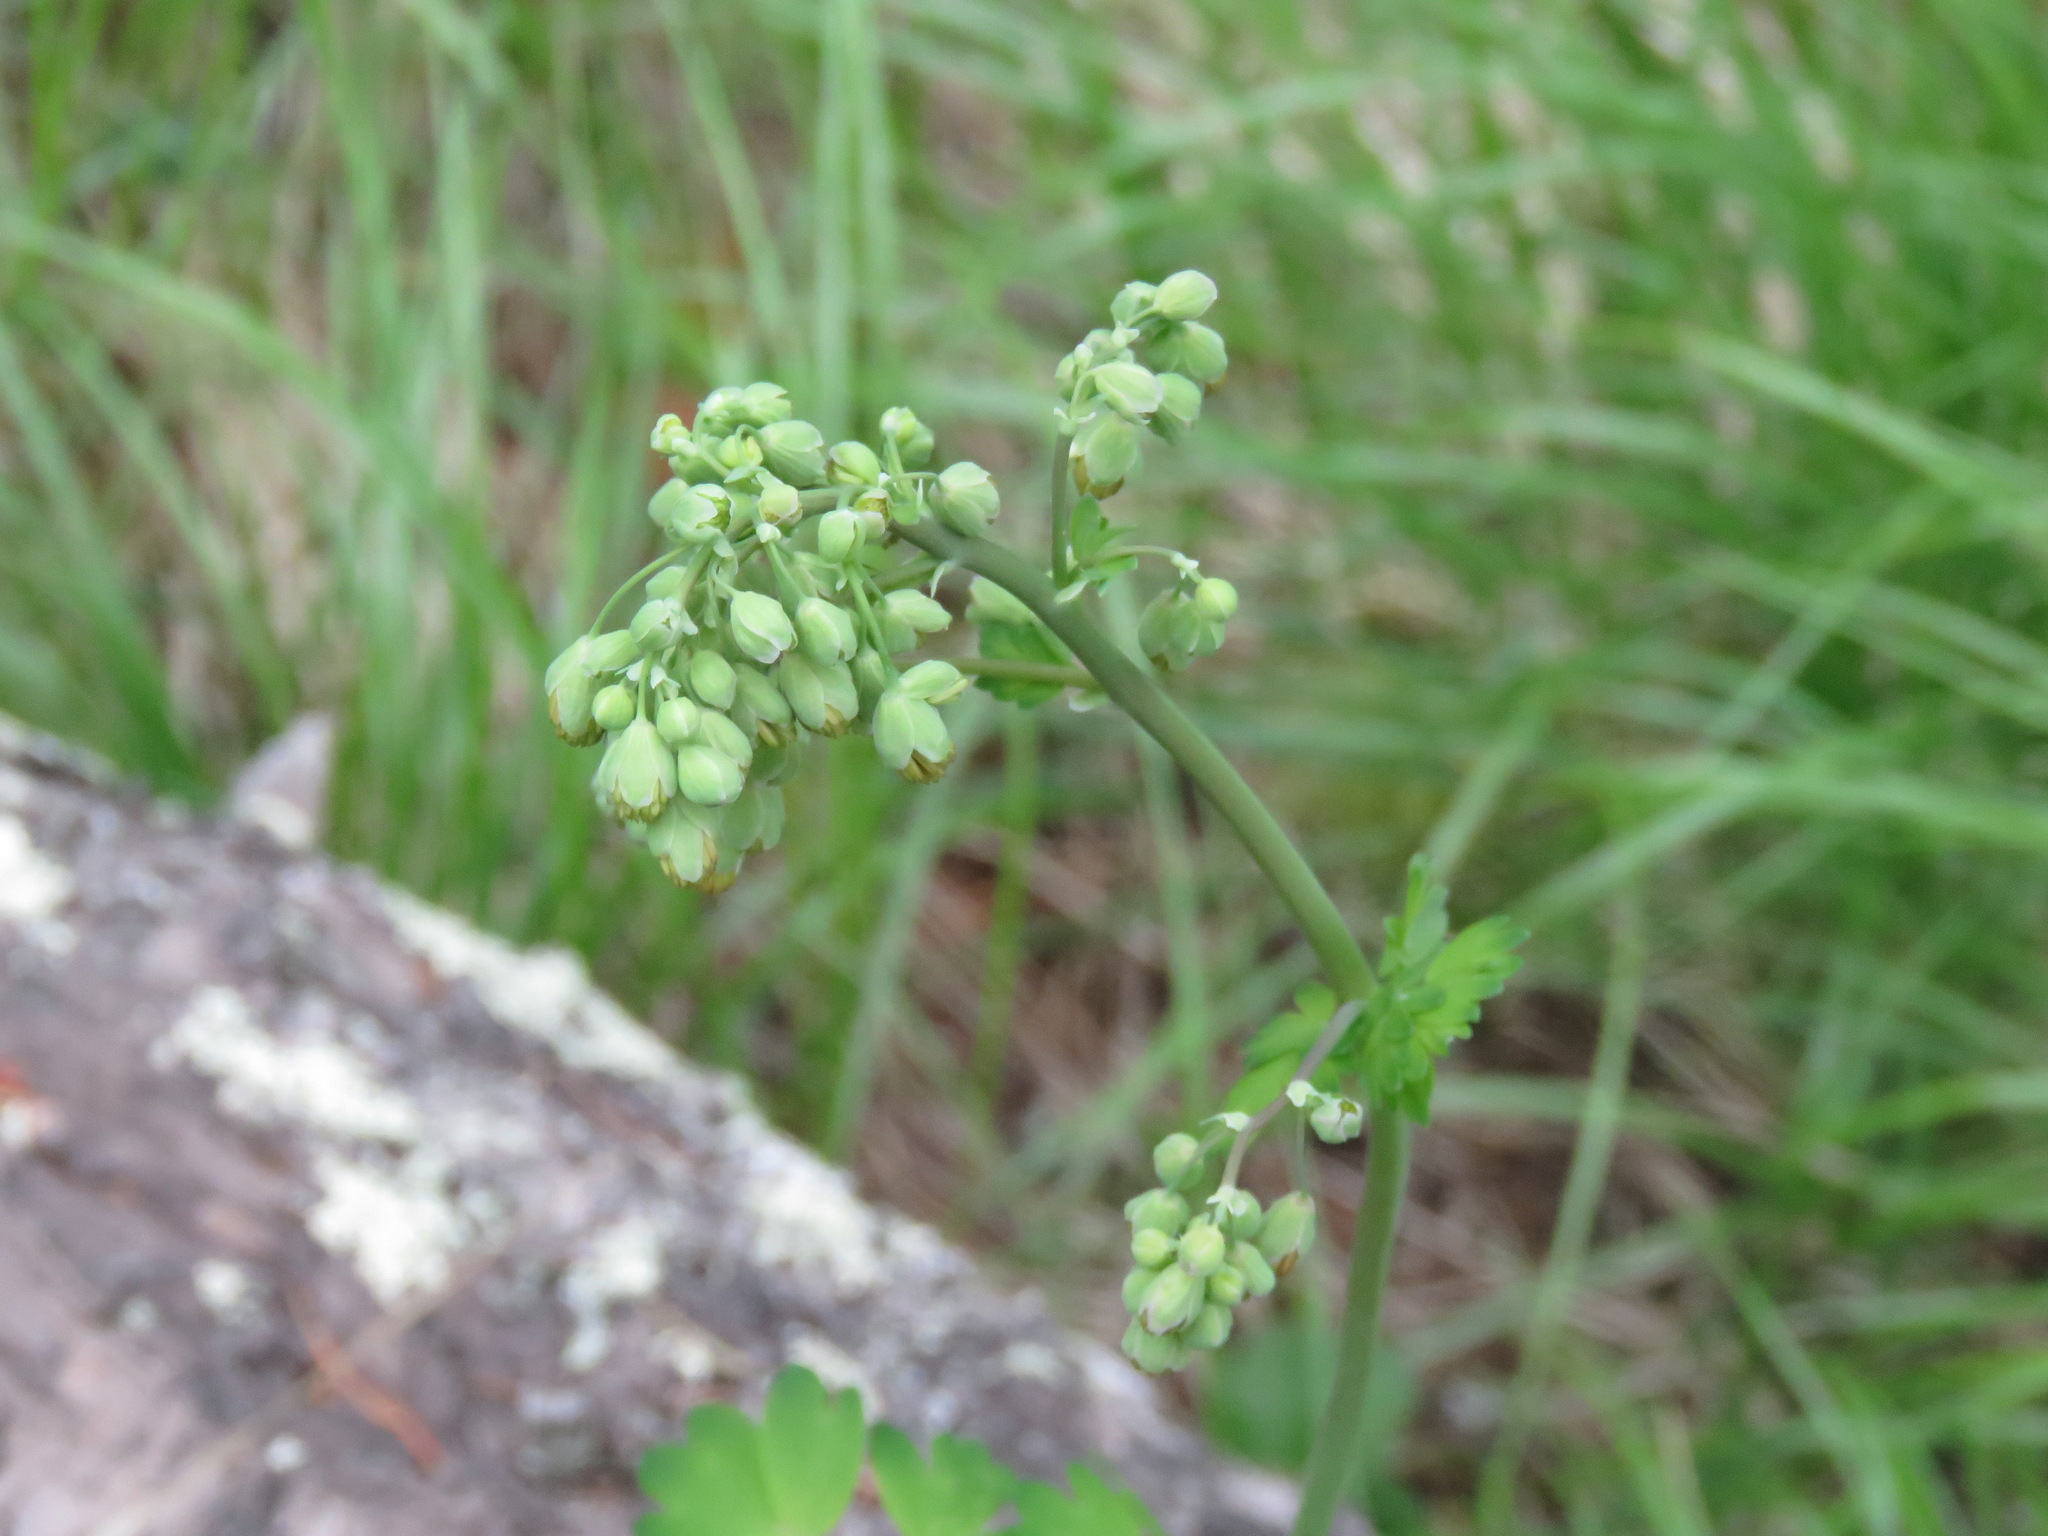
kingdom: Plantae
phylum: Tracheophyta
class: Magnoliopsida
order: Ranunculales
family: Ranunculaceae
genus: Thalictrum
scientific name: Thalictrum occidentale
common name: Western meadow-rue
